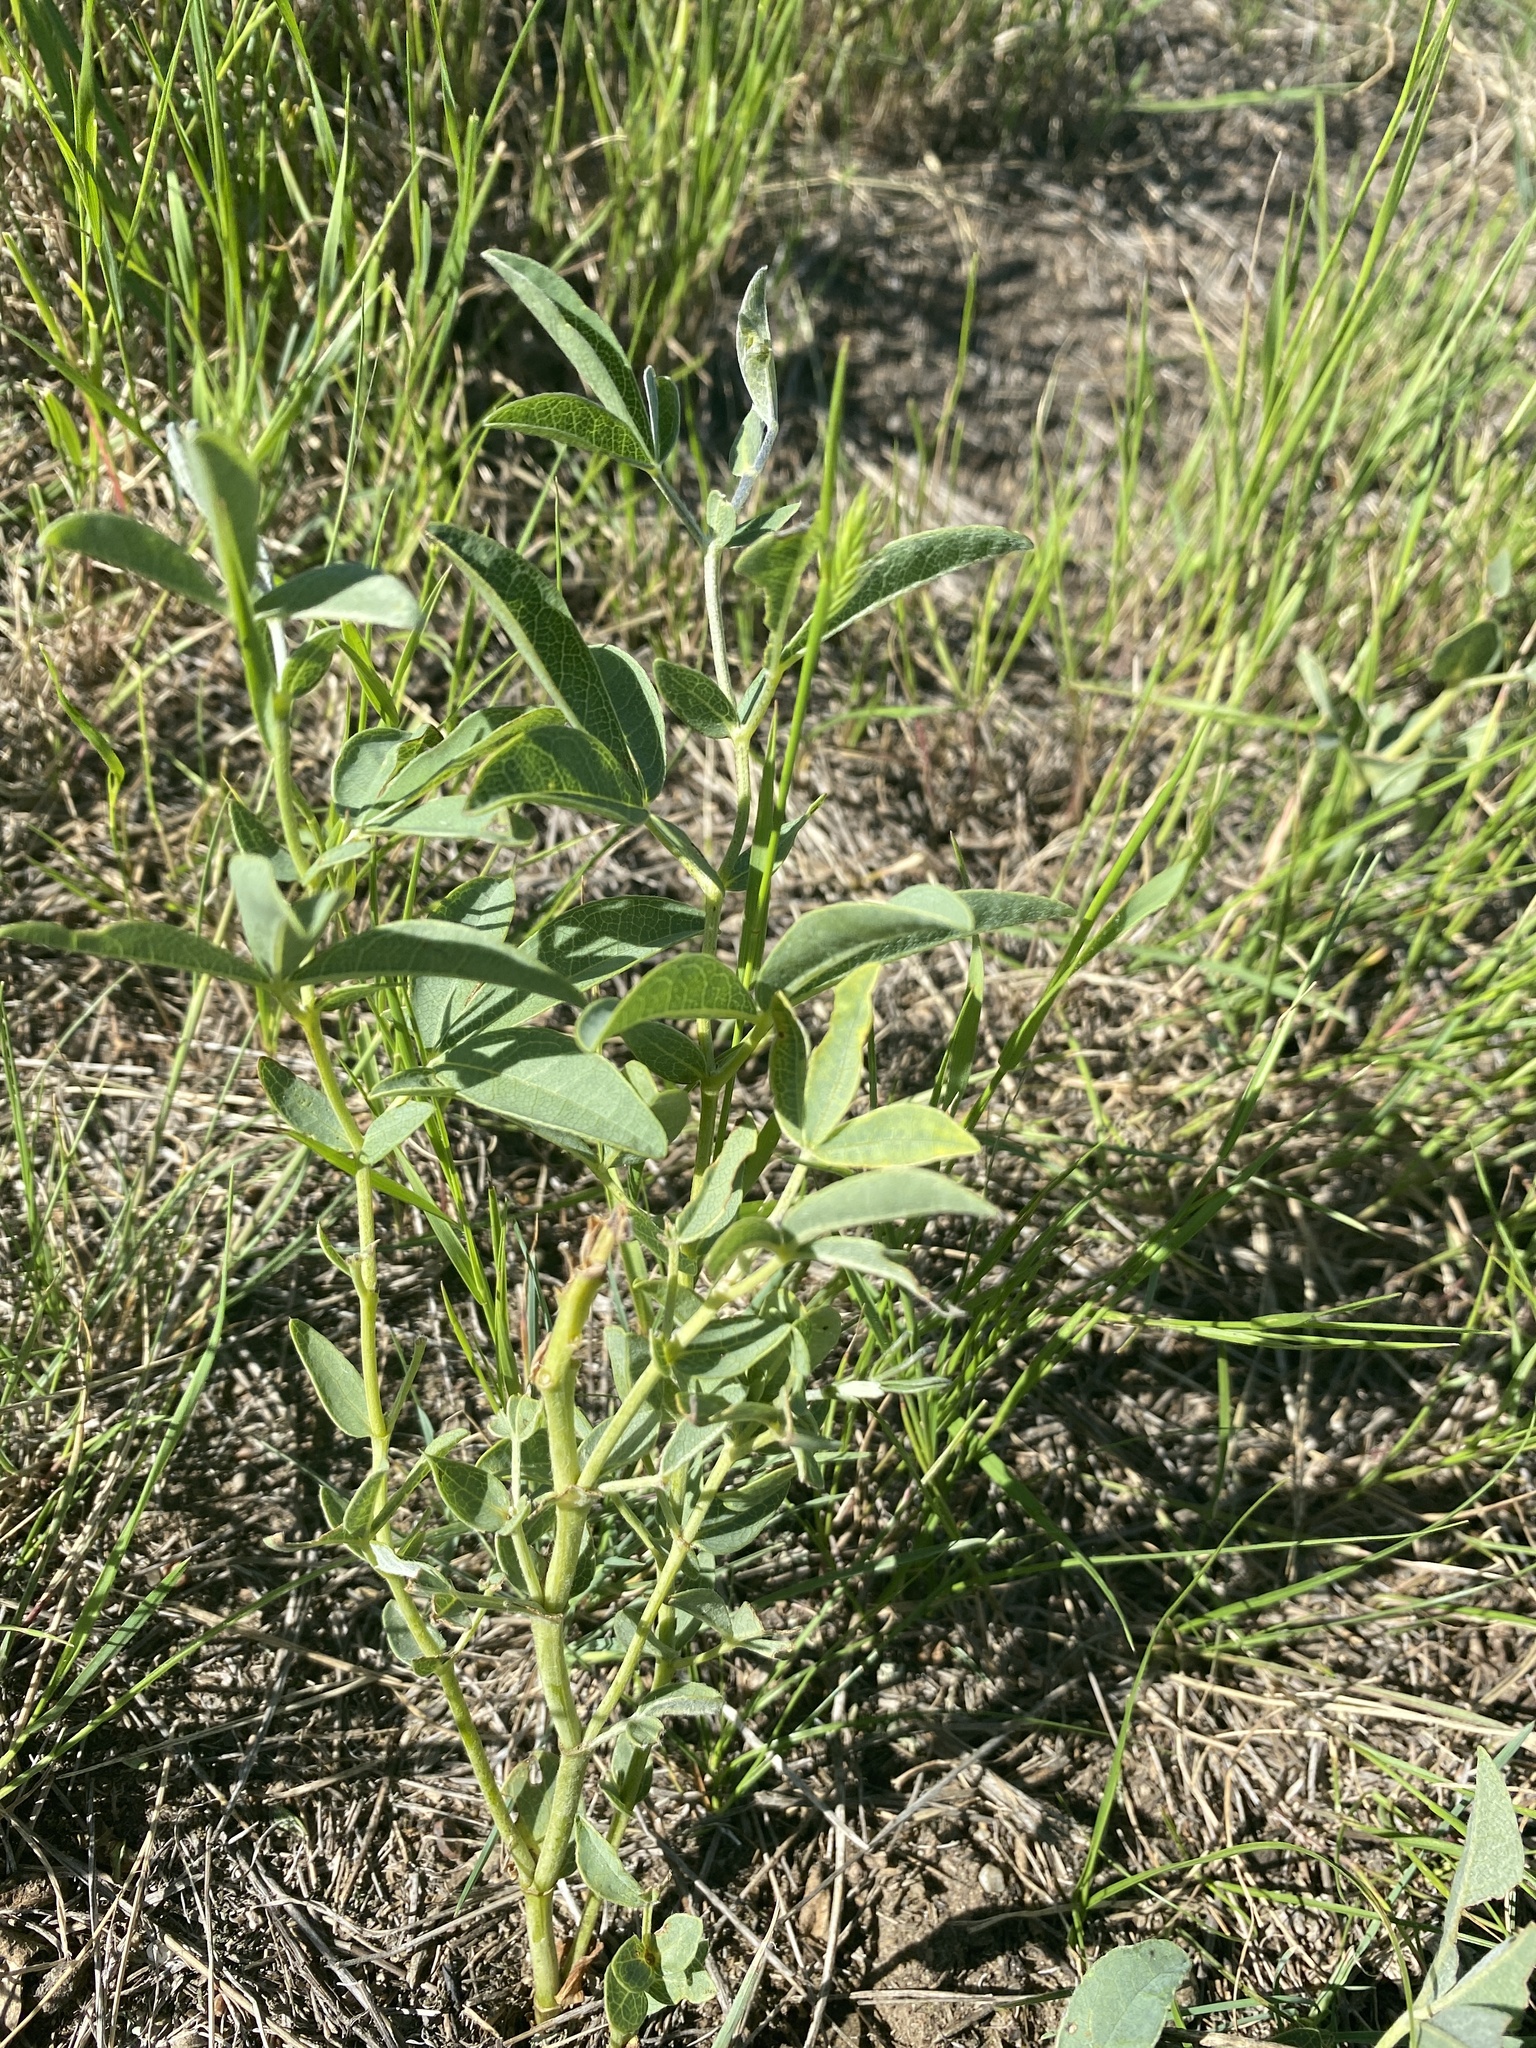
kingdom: Plantae
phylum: Tracheophyta
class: Magnoliopsida
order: Fabales
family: Fabaceae
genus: Thermopsis
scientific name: Thermopsis rhombifolia
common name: Circle-pod-pea
